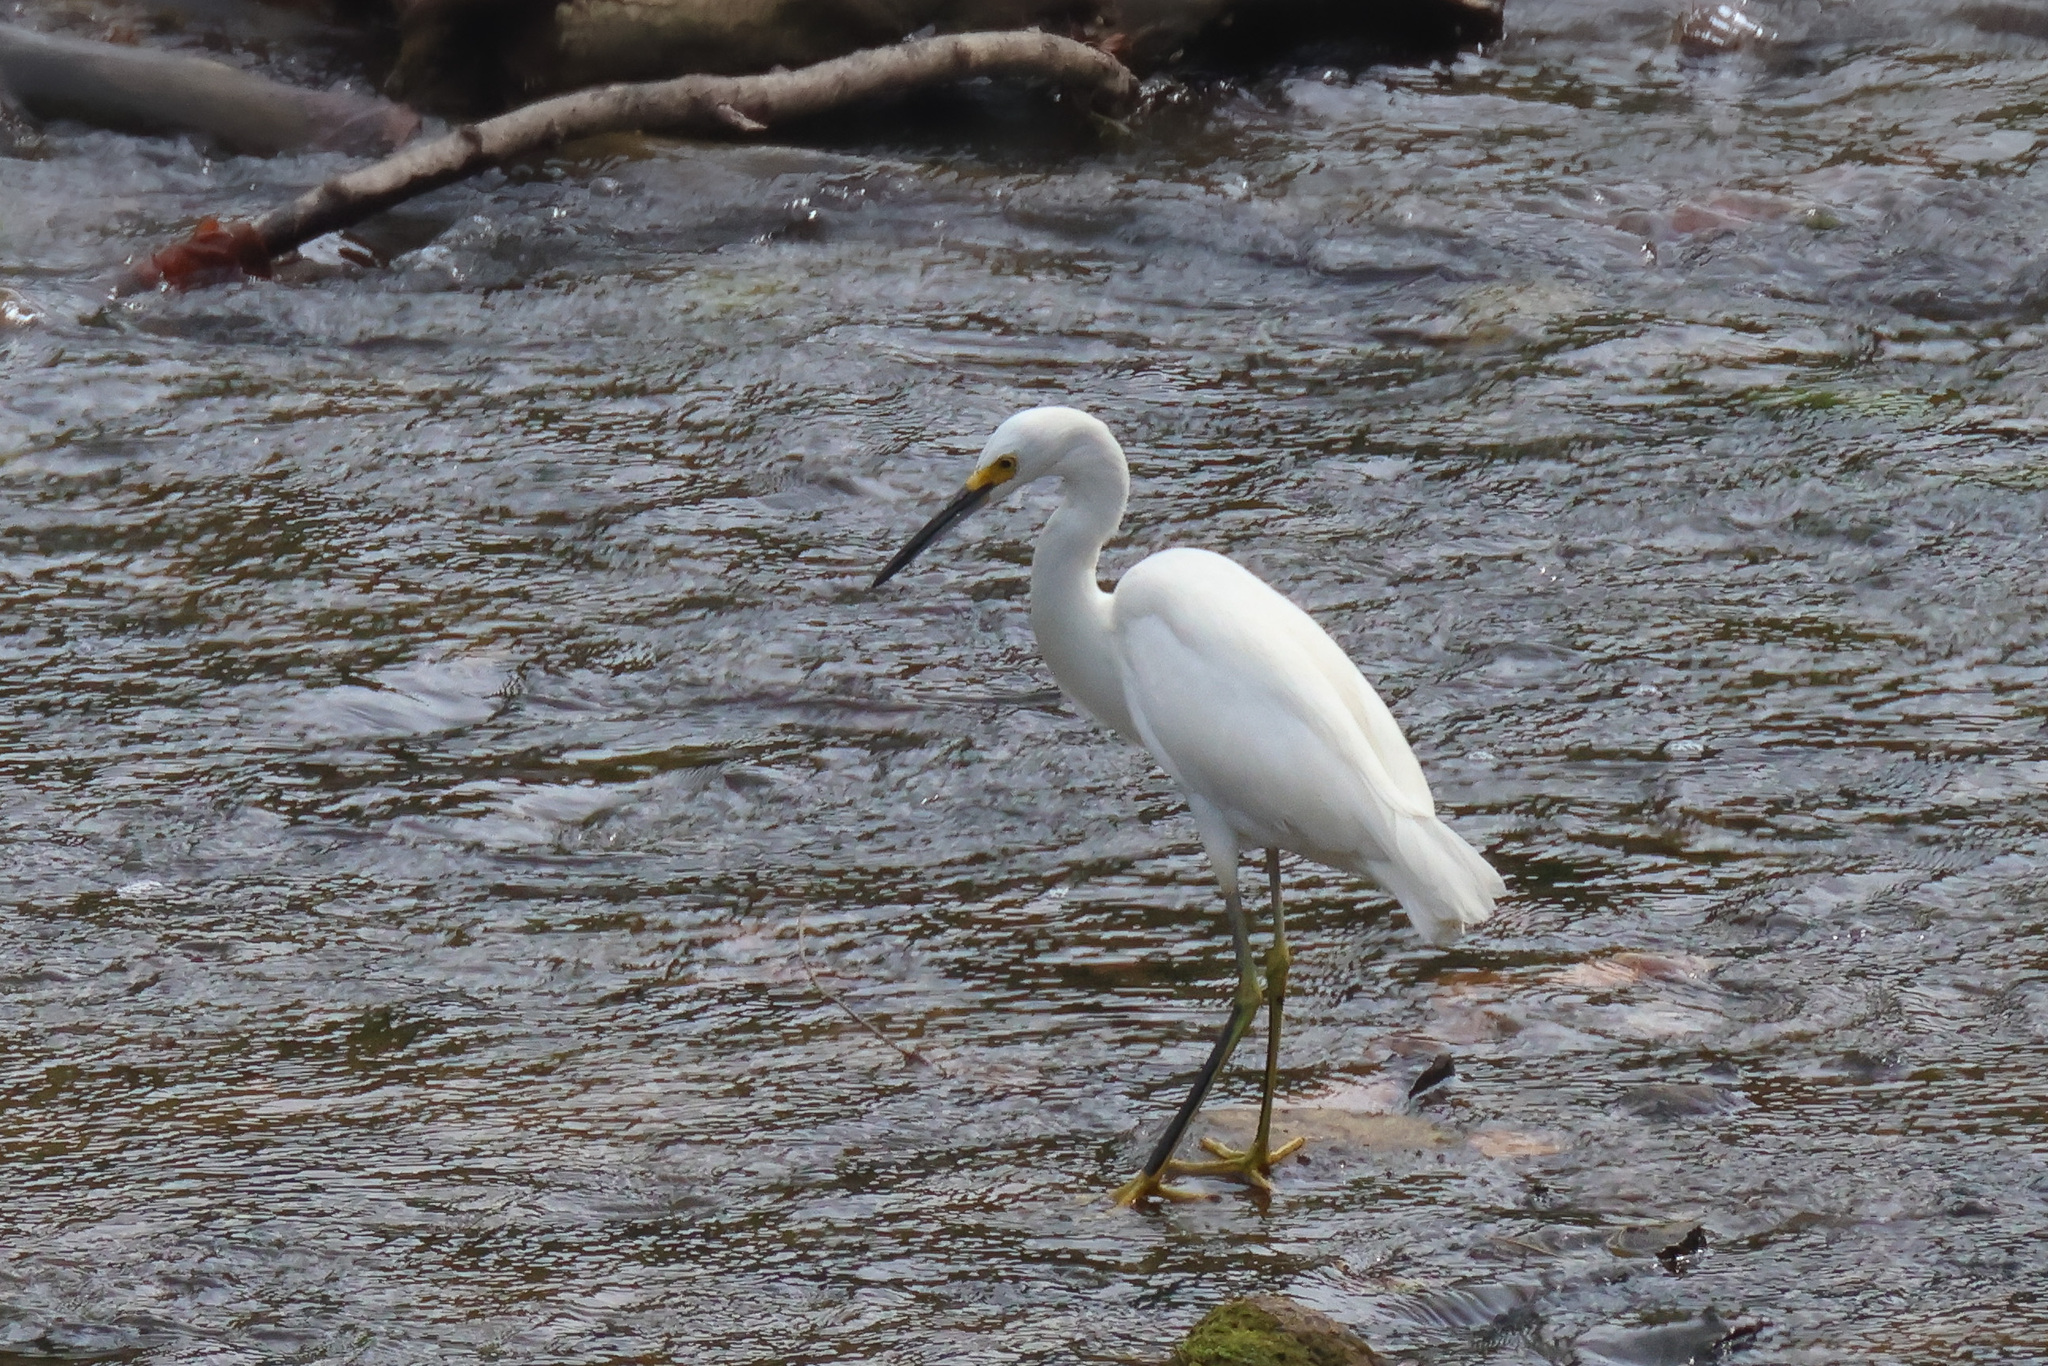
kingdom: Animalia
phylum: Chordata
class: Aves
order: Pelecaniformes
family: Ardeidae
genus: Egretta
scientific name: Egretta thula
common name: Snowy egret
